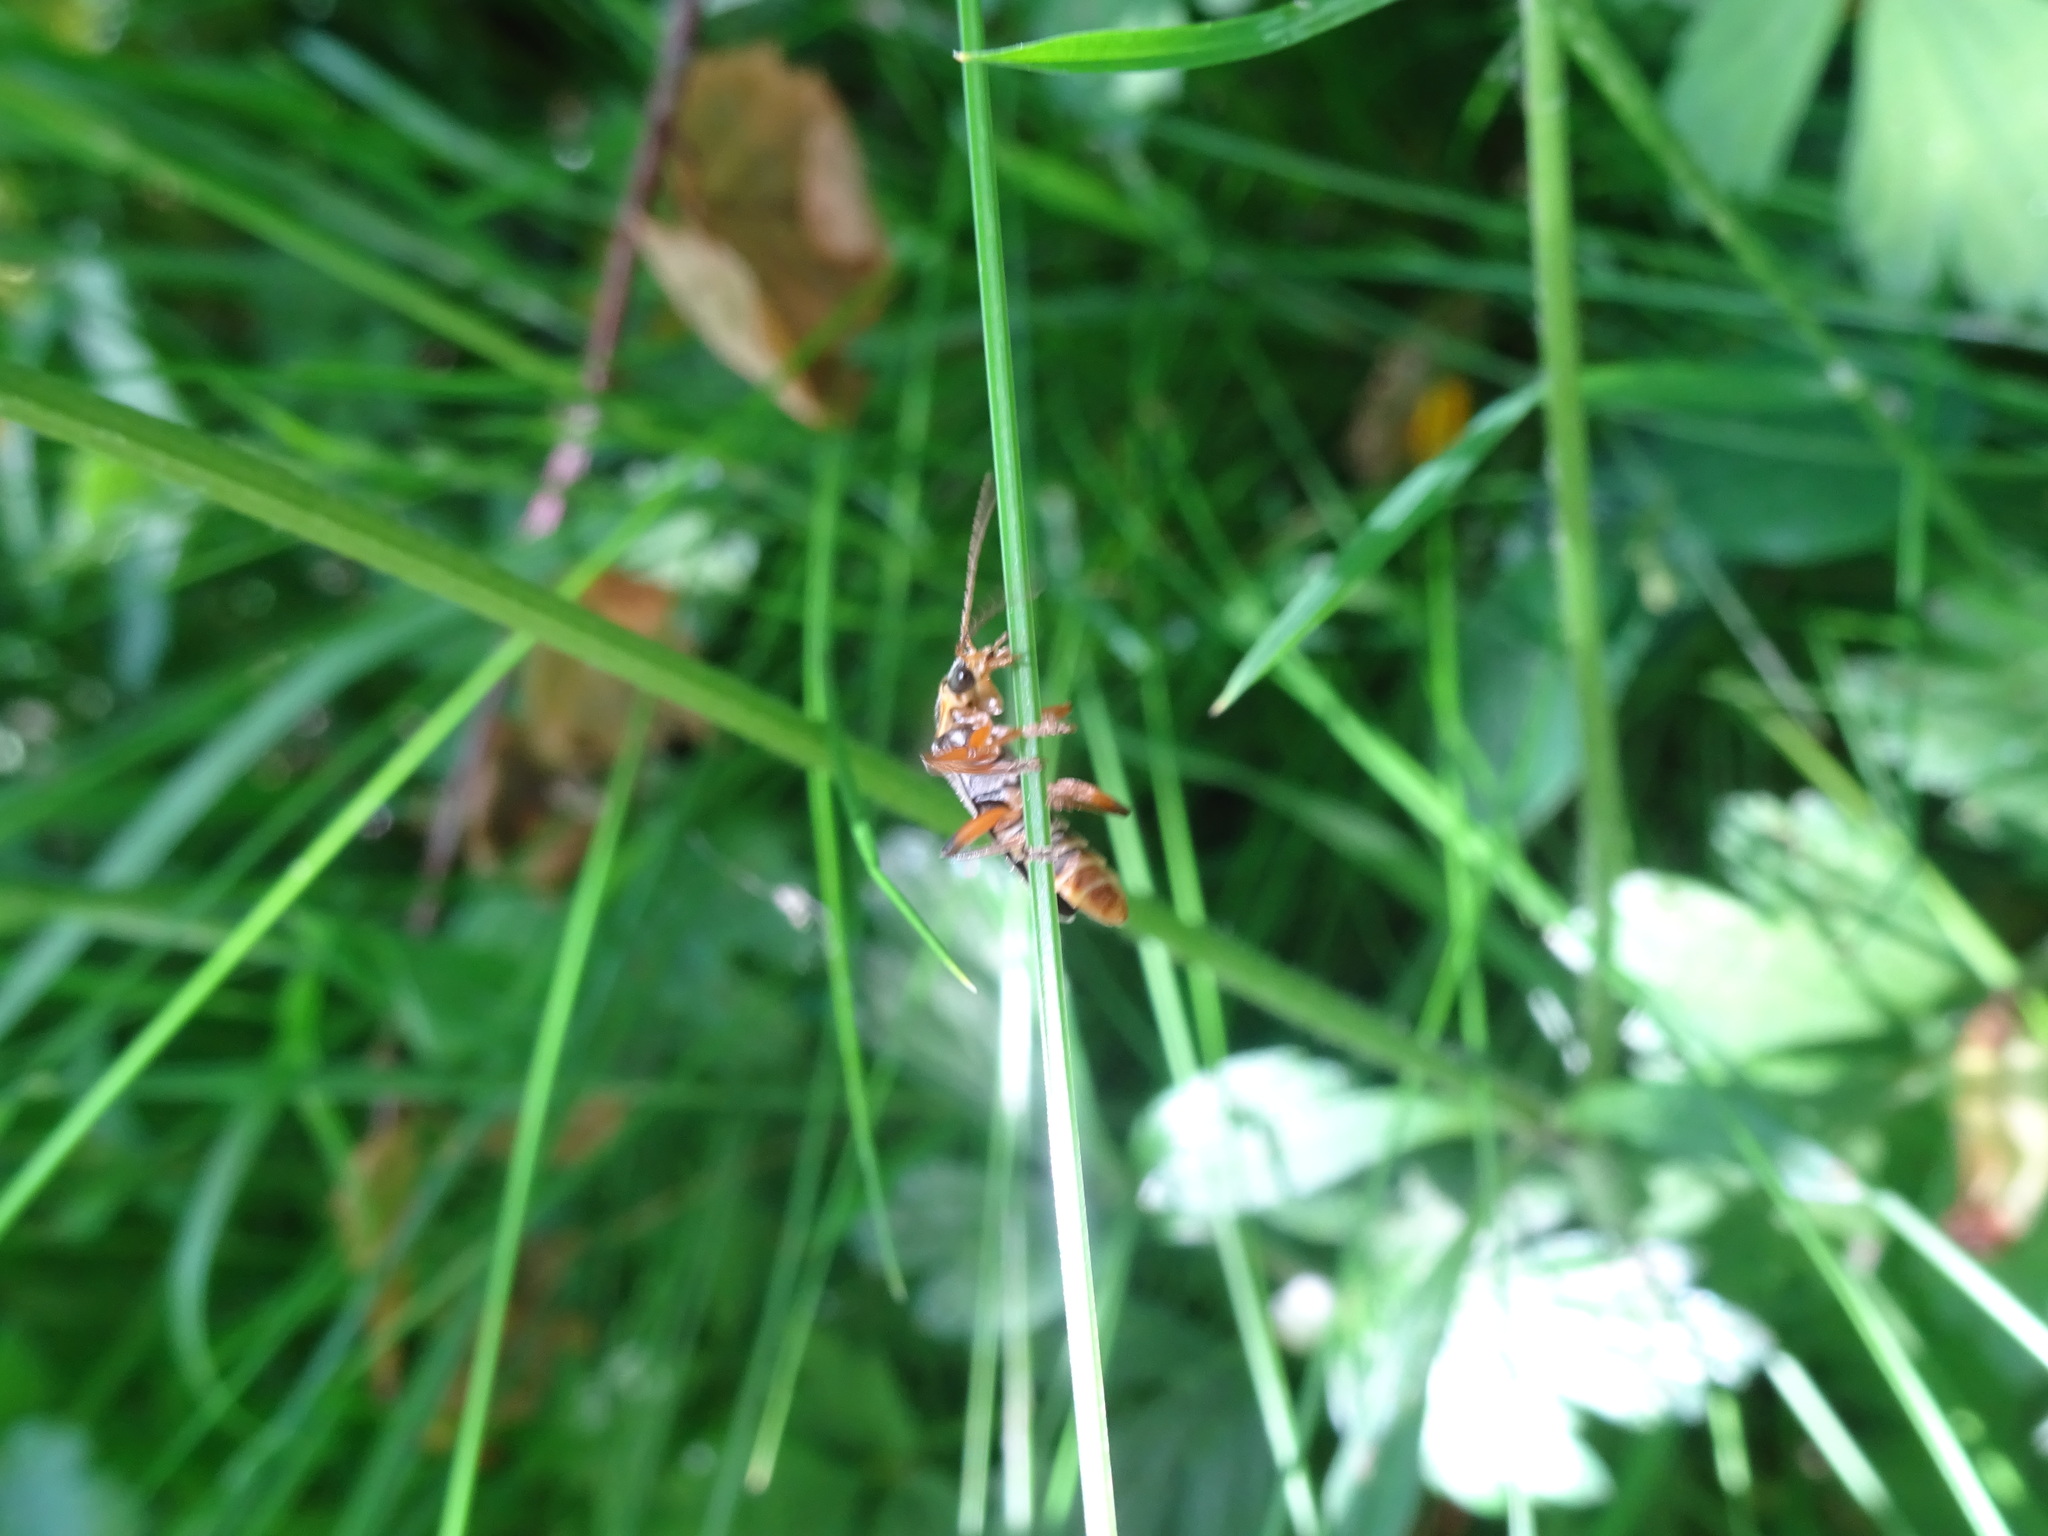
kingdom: Animalia
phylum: Arthropoda
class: Insecta
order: Coleoptera
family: Cantharidae
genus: Cantharis
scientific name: Cantharis nigricans
